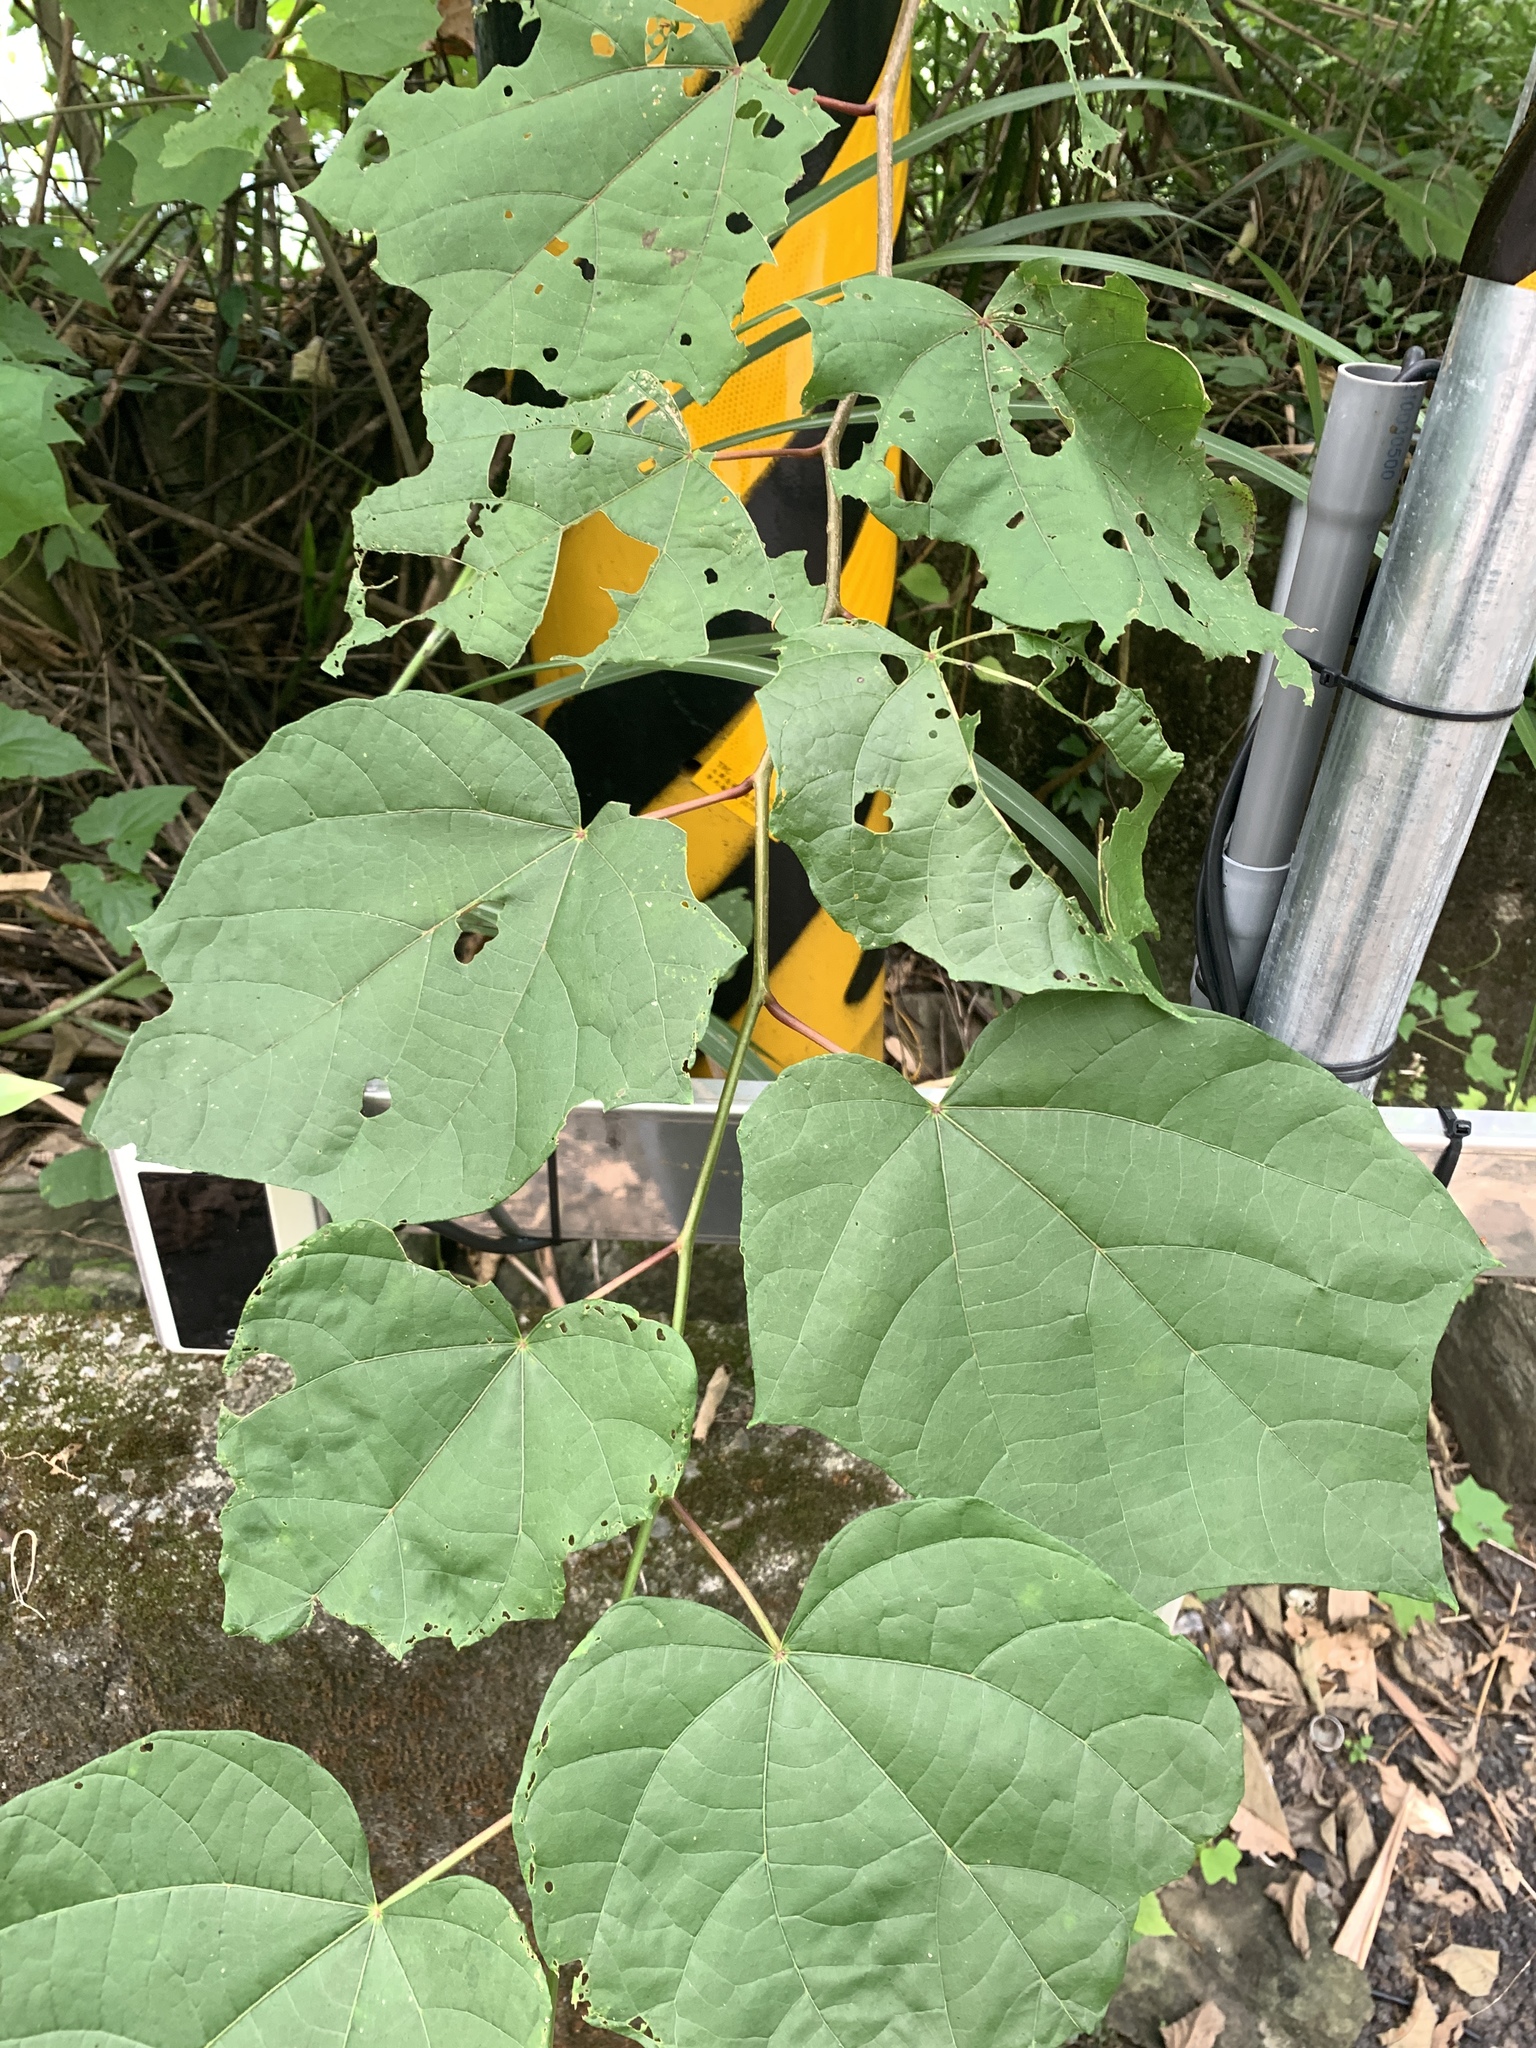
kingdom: Plantae
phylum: Tracheophyta
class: Magnoliopsida
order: Cornales
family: Cornaceae
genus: Alangium
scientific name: Alangium chinense
